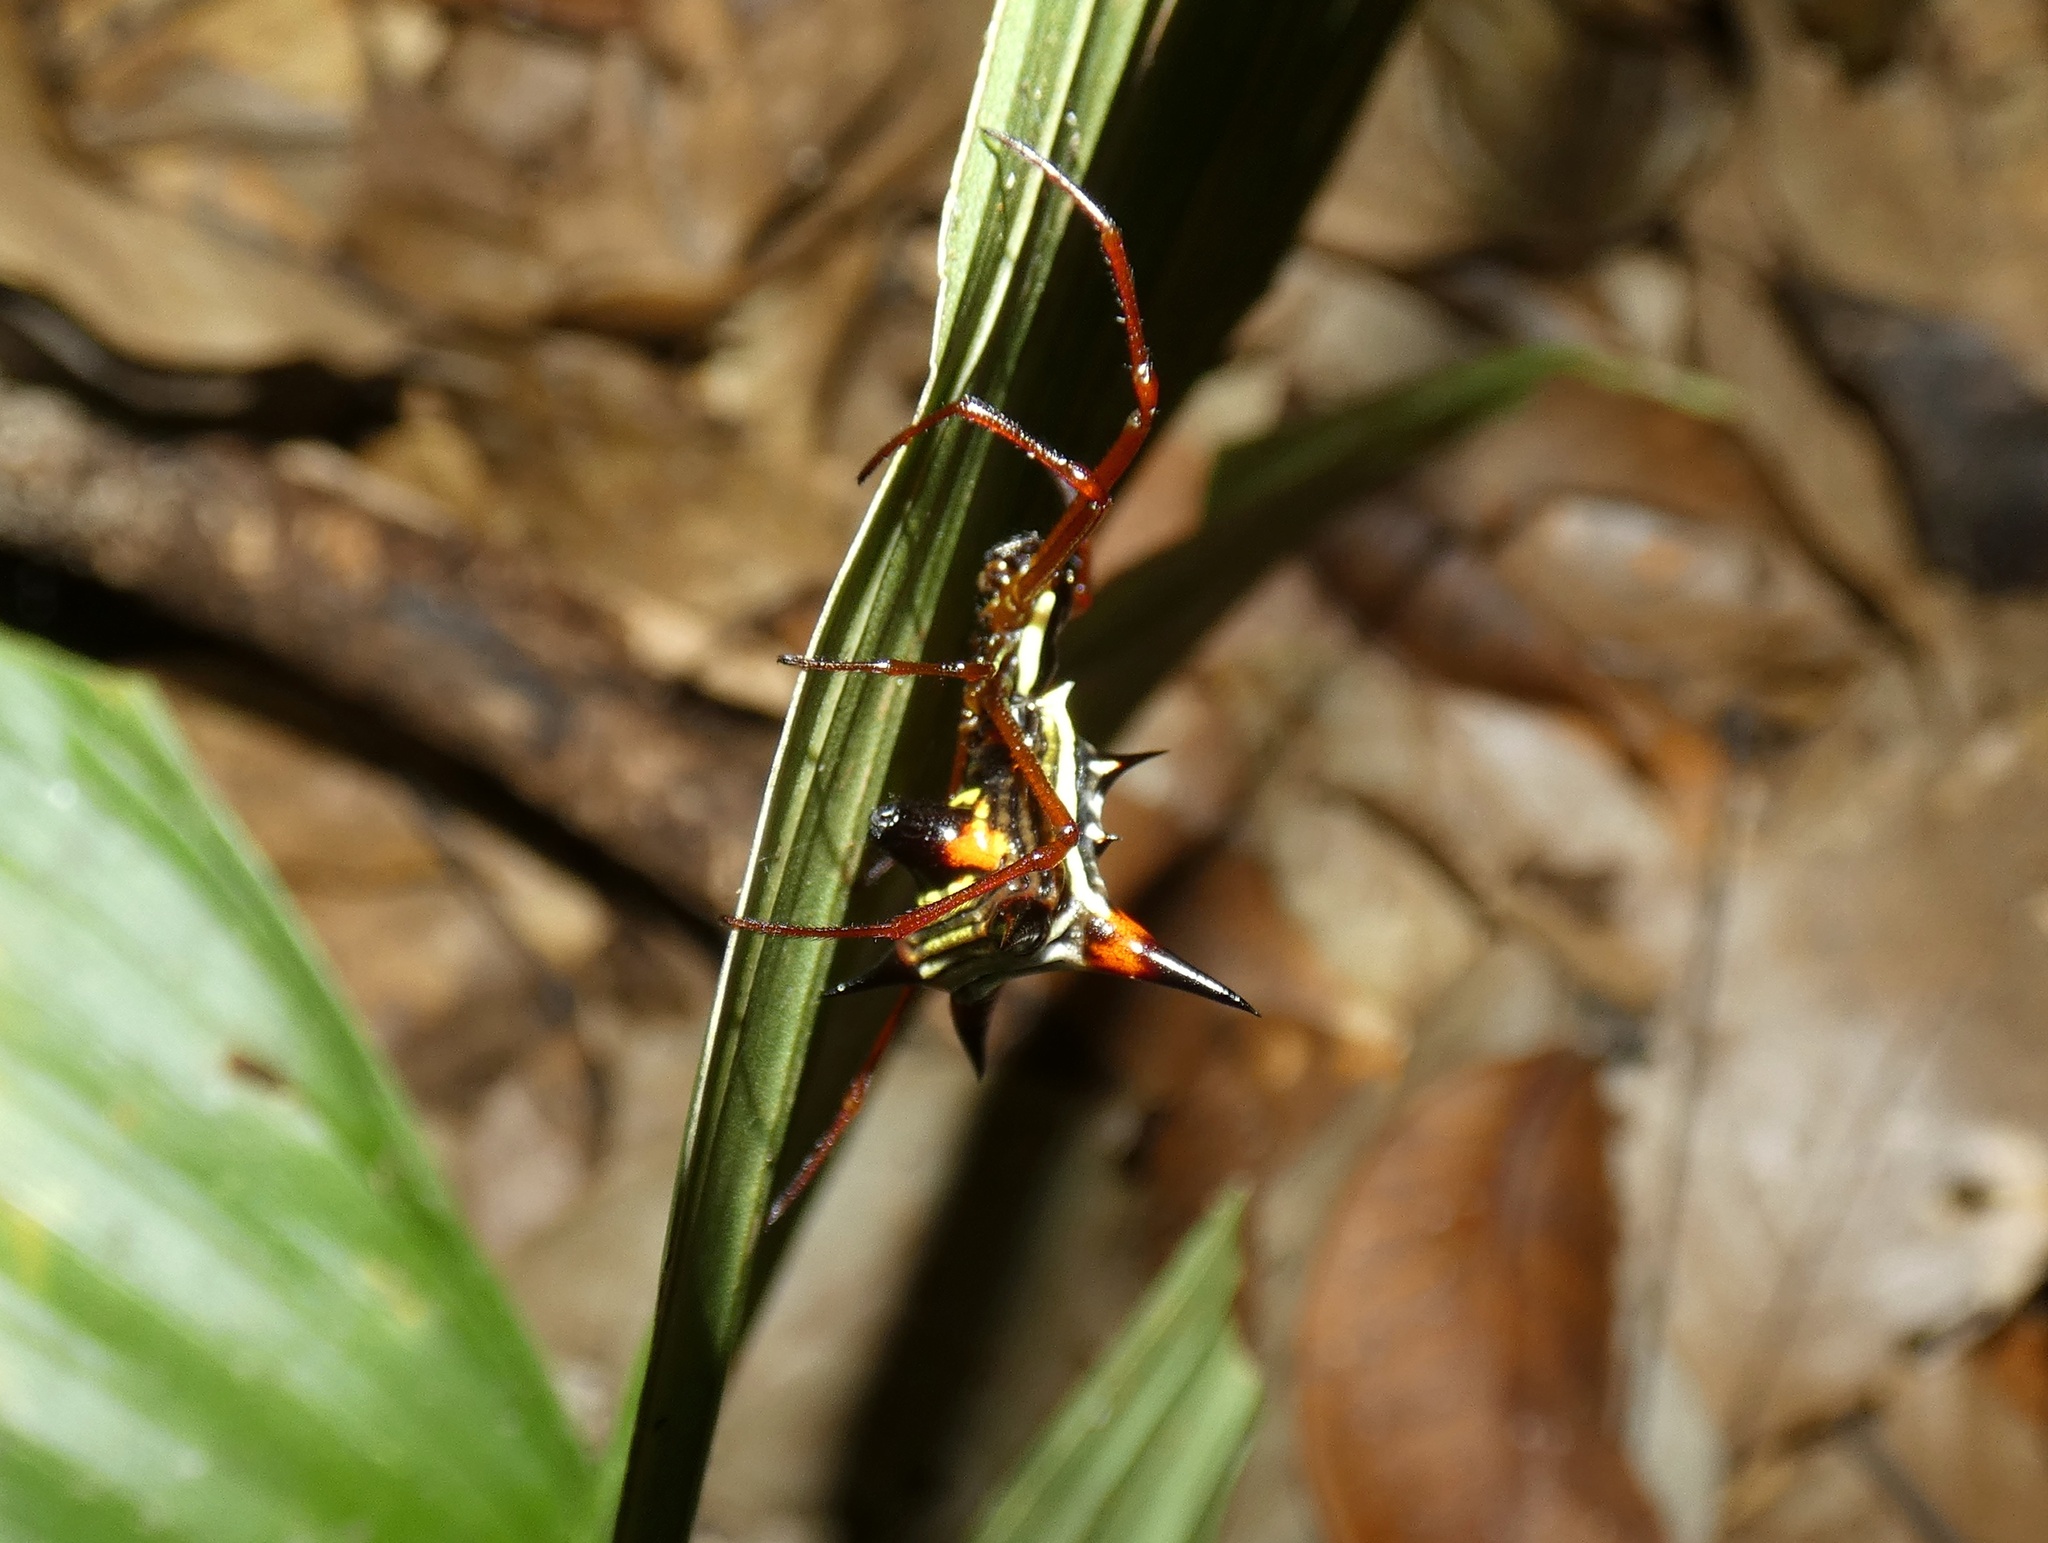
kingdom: Animalia
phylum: Arthropoda
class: Arachnida
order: Araneae
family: Araneidae
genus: Micrathena
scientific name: Micrathena schreibersi
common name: Orb weavers
